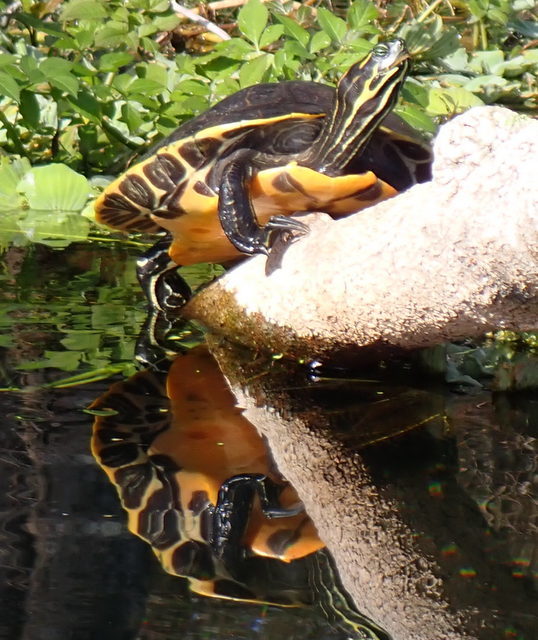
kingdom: Animalia
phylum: Chordata
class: Testudines
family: Emydidae
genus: Pseudemys
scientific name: Pseudemys concinna
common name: Eastern river cooter
